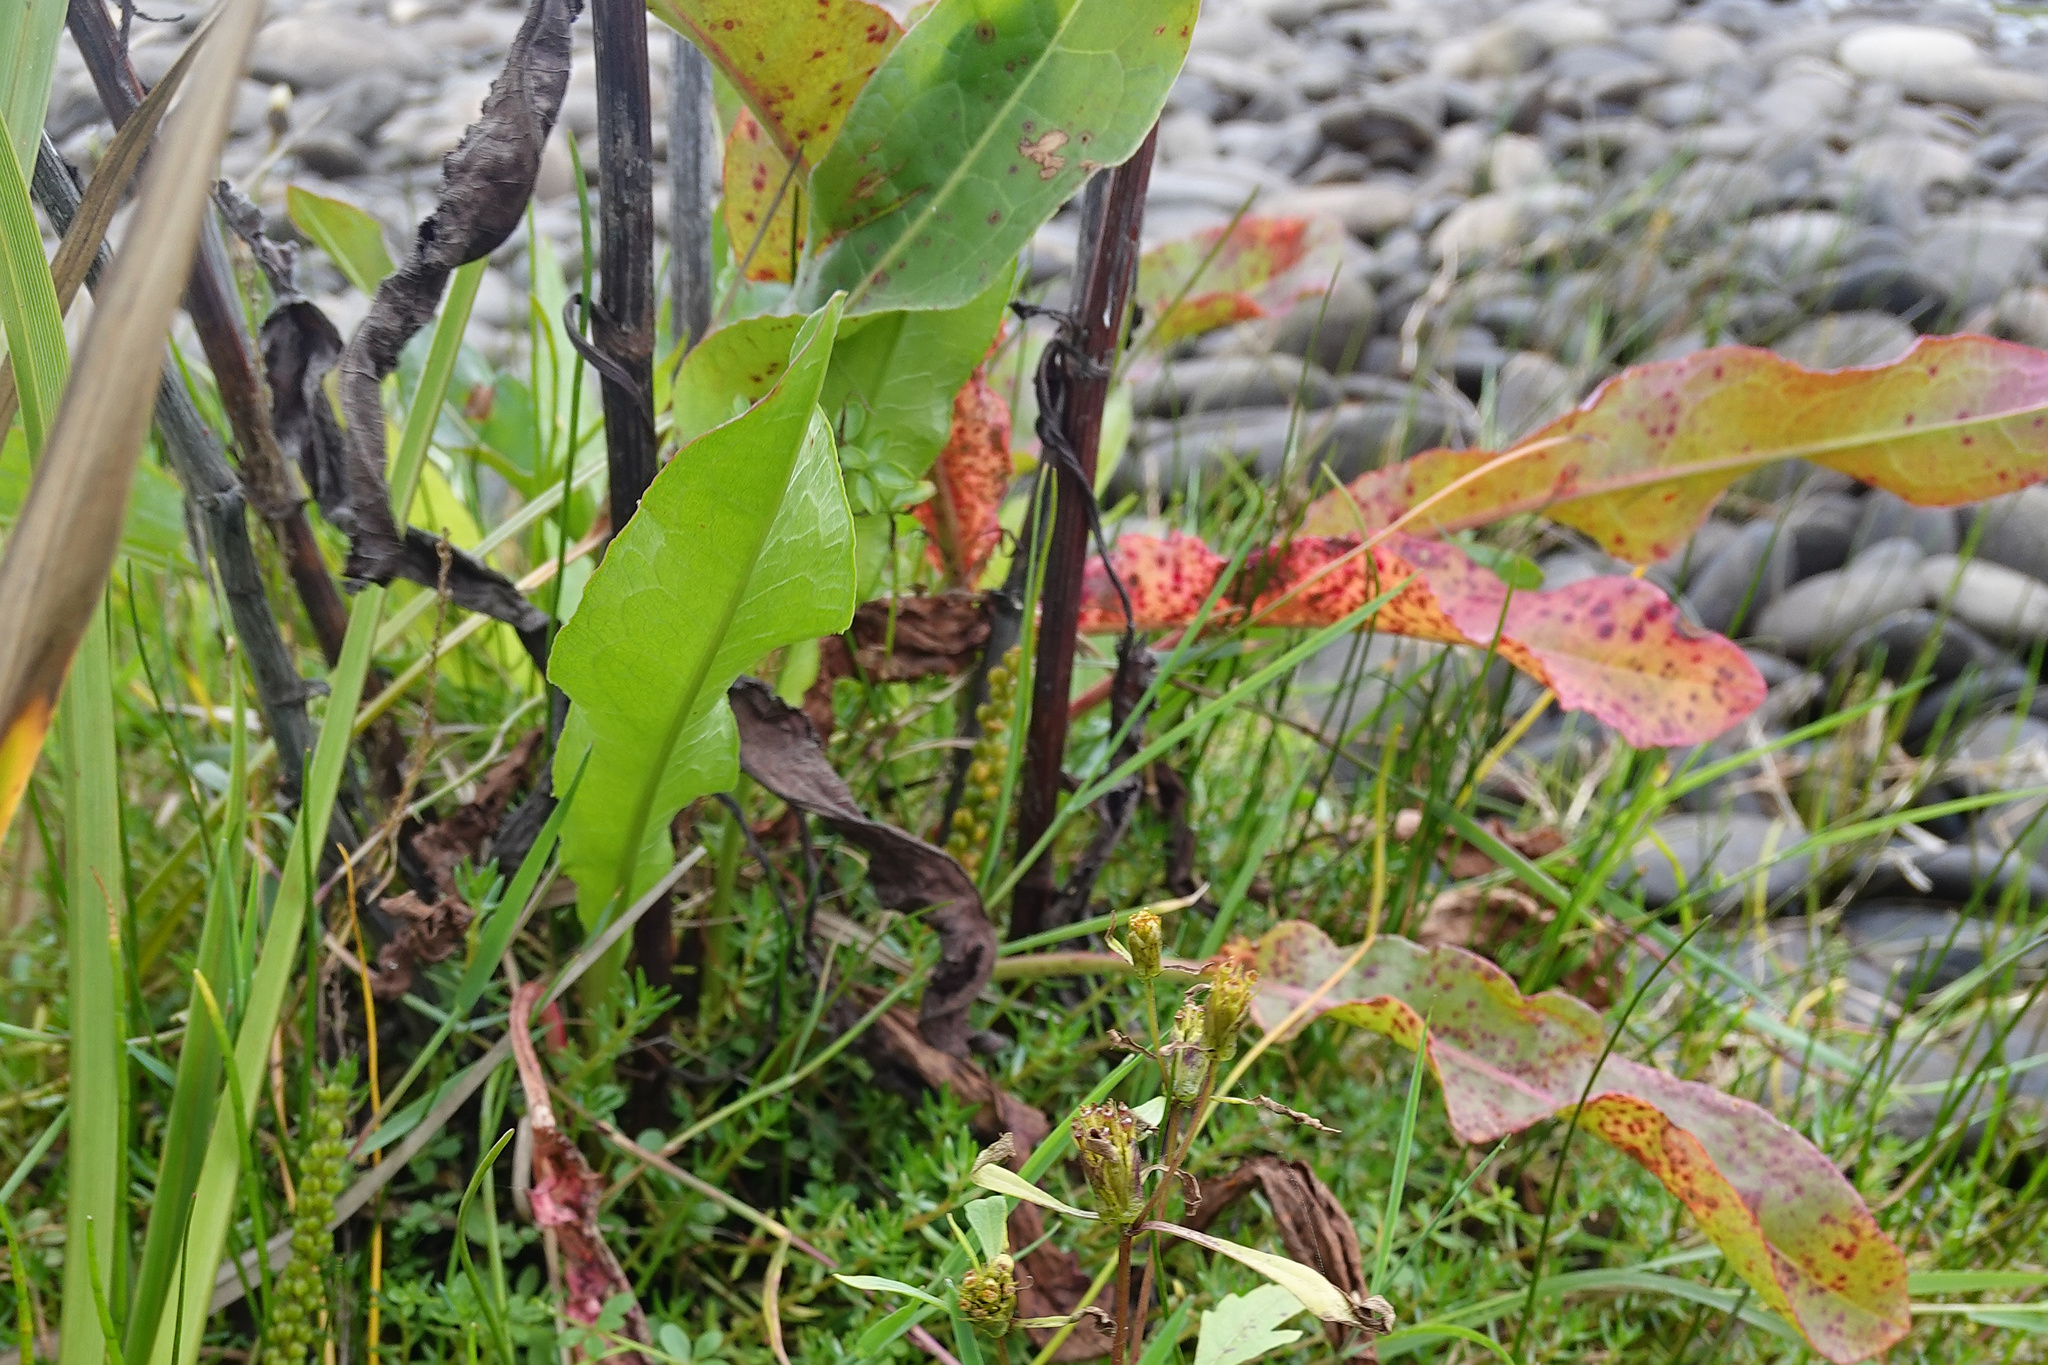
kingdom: Plantae
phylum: Tracheophyta
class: Magnoliopsida
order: Caryophyllales
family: Polygonaceae
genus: Rumex
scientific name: Rumex crispus
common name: Curled dock
